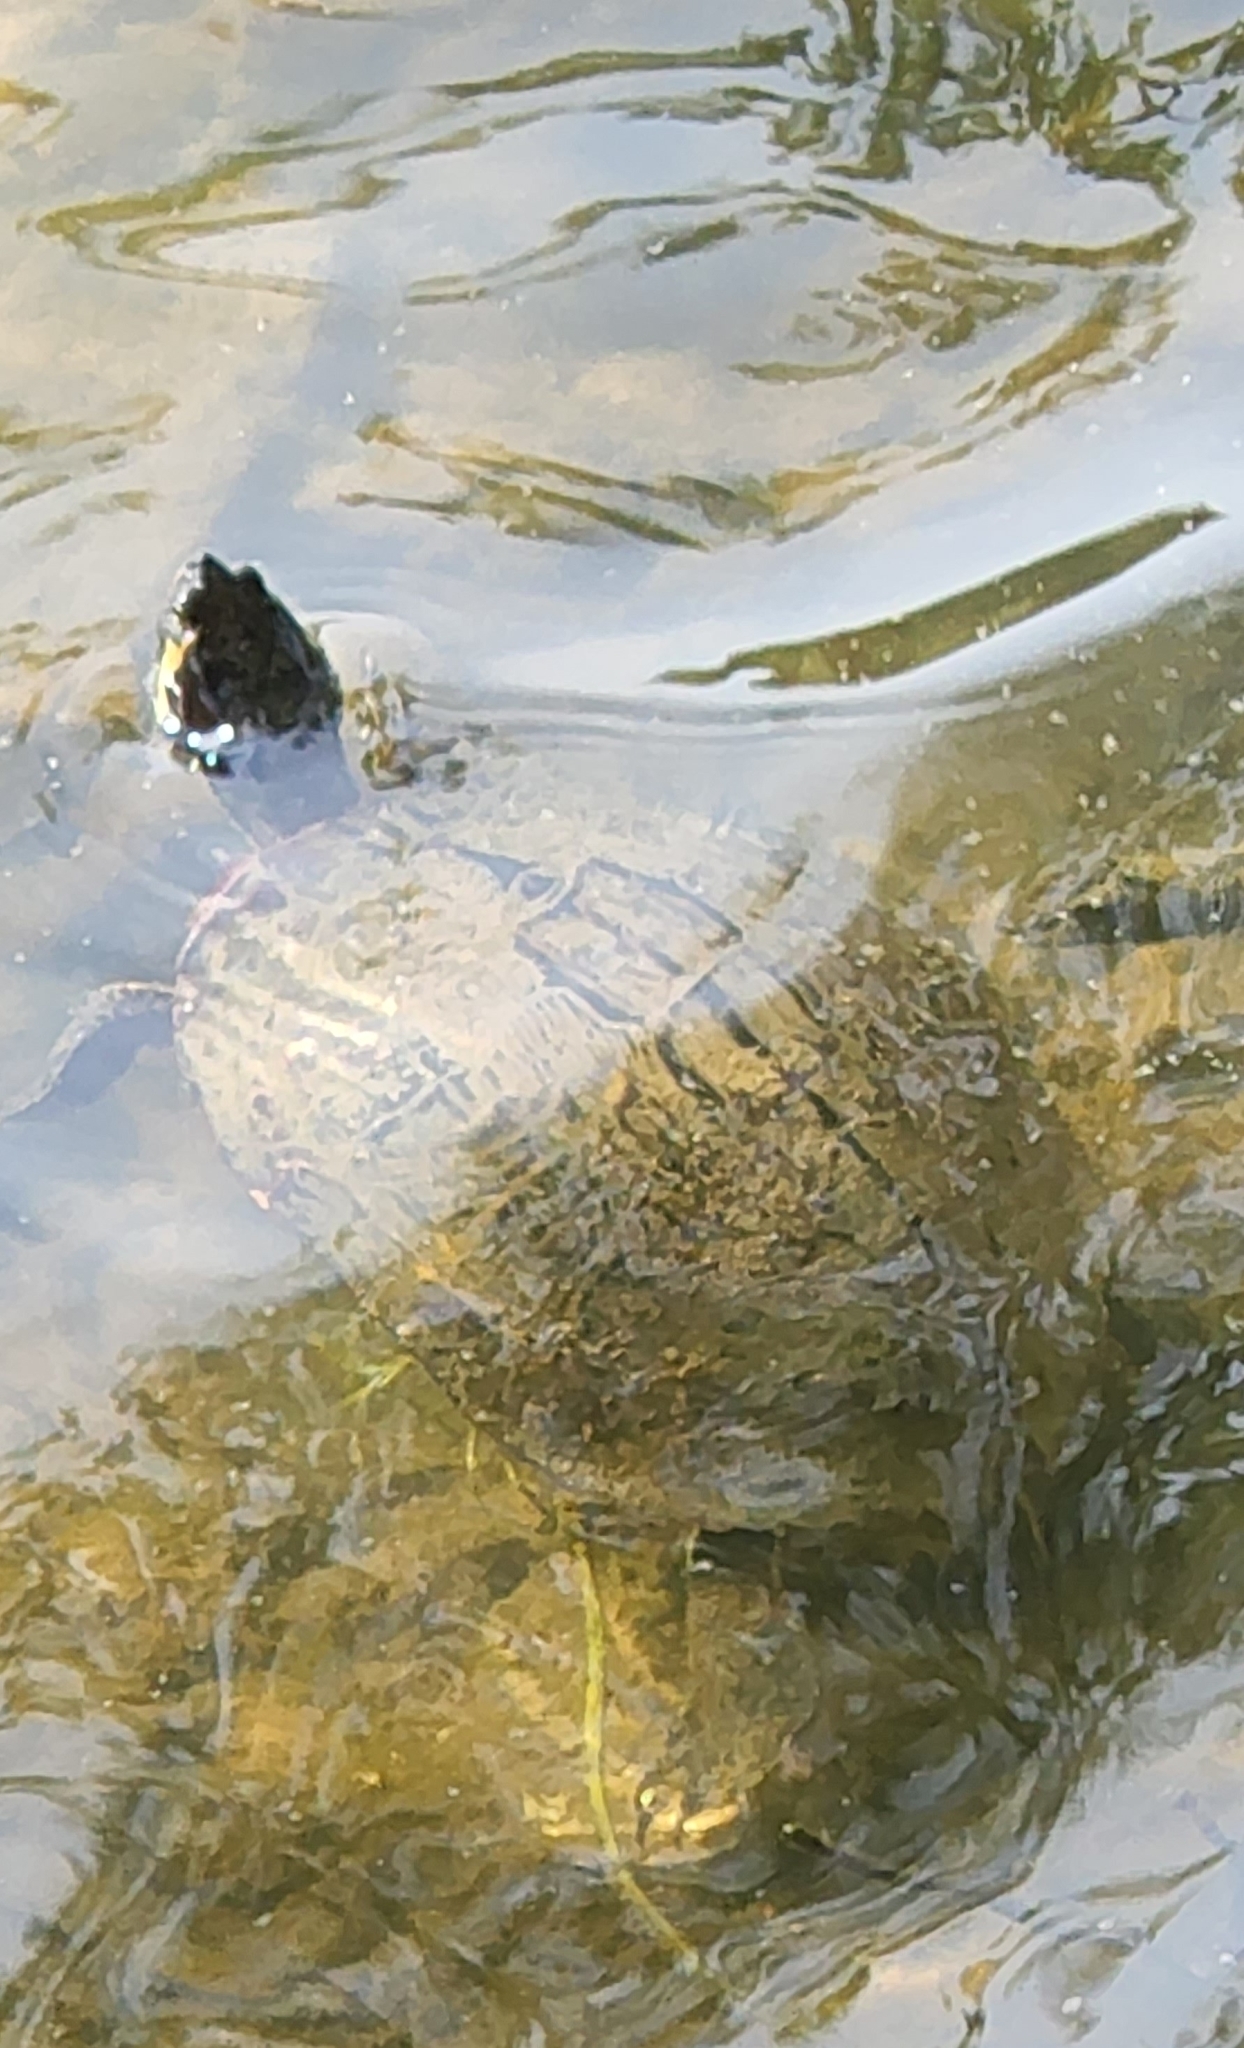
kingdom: Animalia
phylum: Chordata
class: Testudines
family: Emydidae
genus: Trachemys
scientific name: Trachemys scripta
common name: Slider
